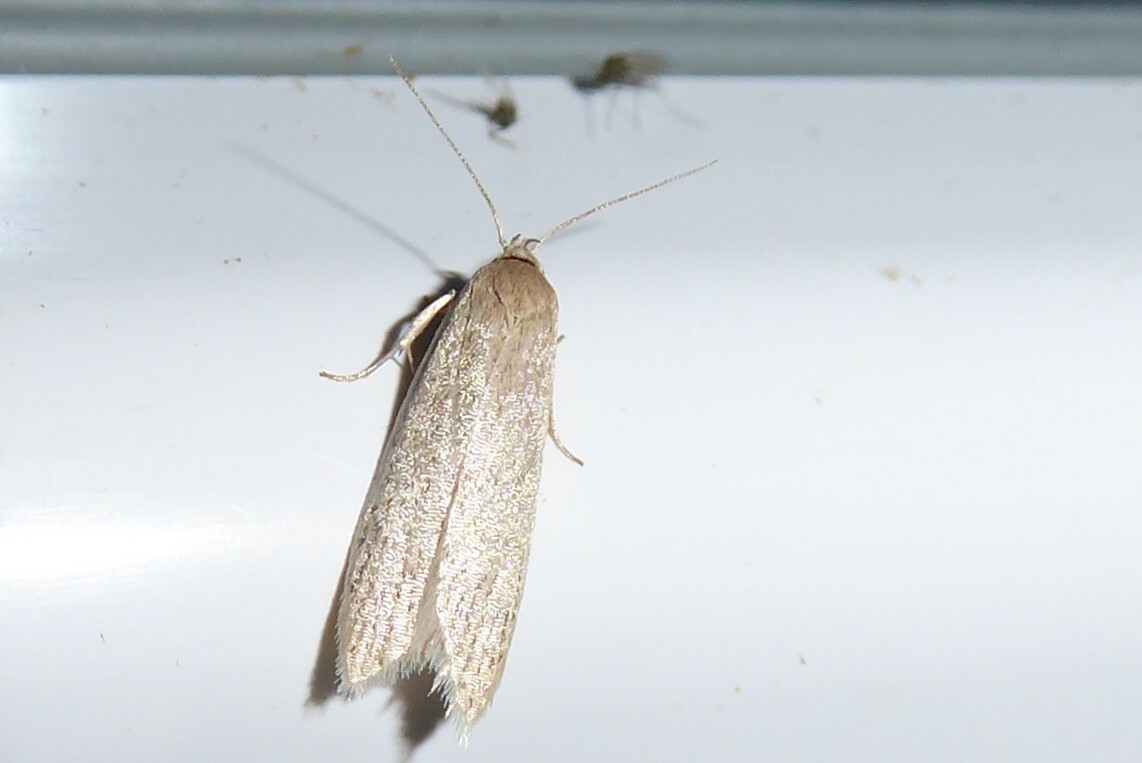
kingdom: Animalia
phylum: Arthropoda
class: Insecta
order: Lepidoptera
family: Xyloryctidae
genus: Scieropepla
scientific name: Scieropepla typhicola
